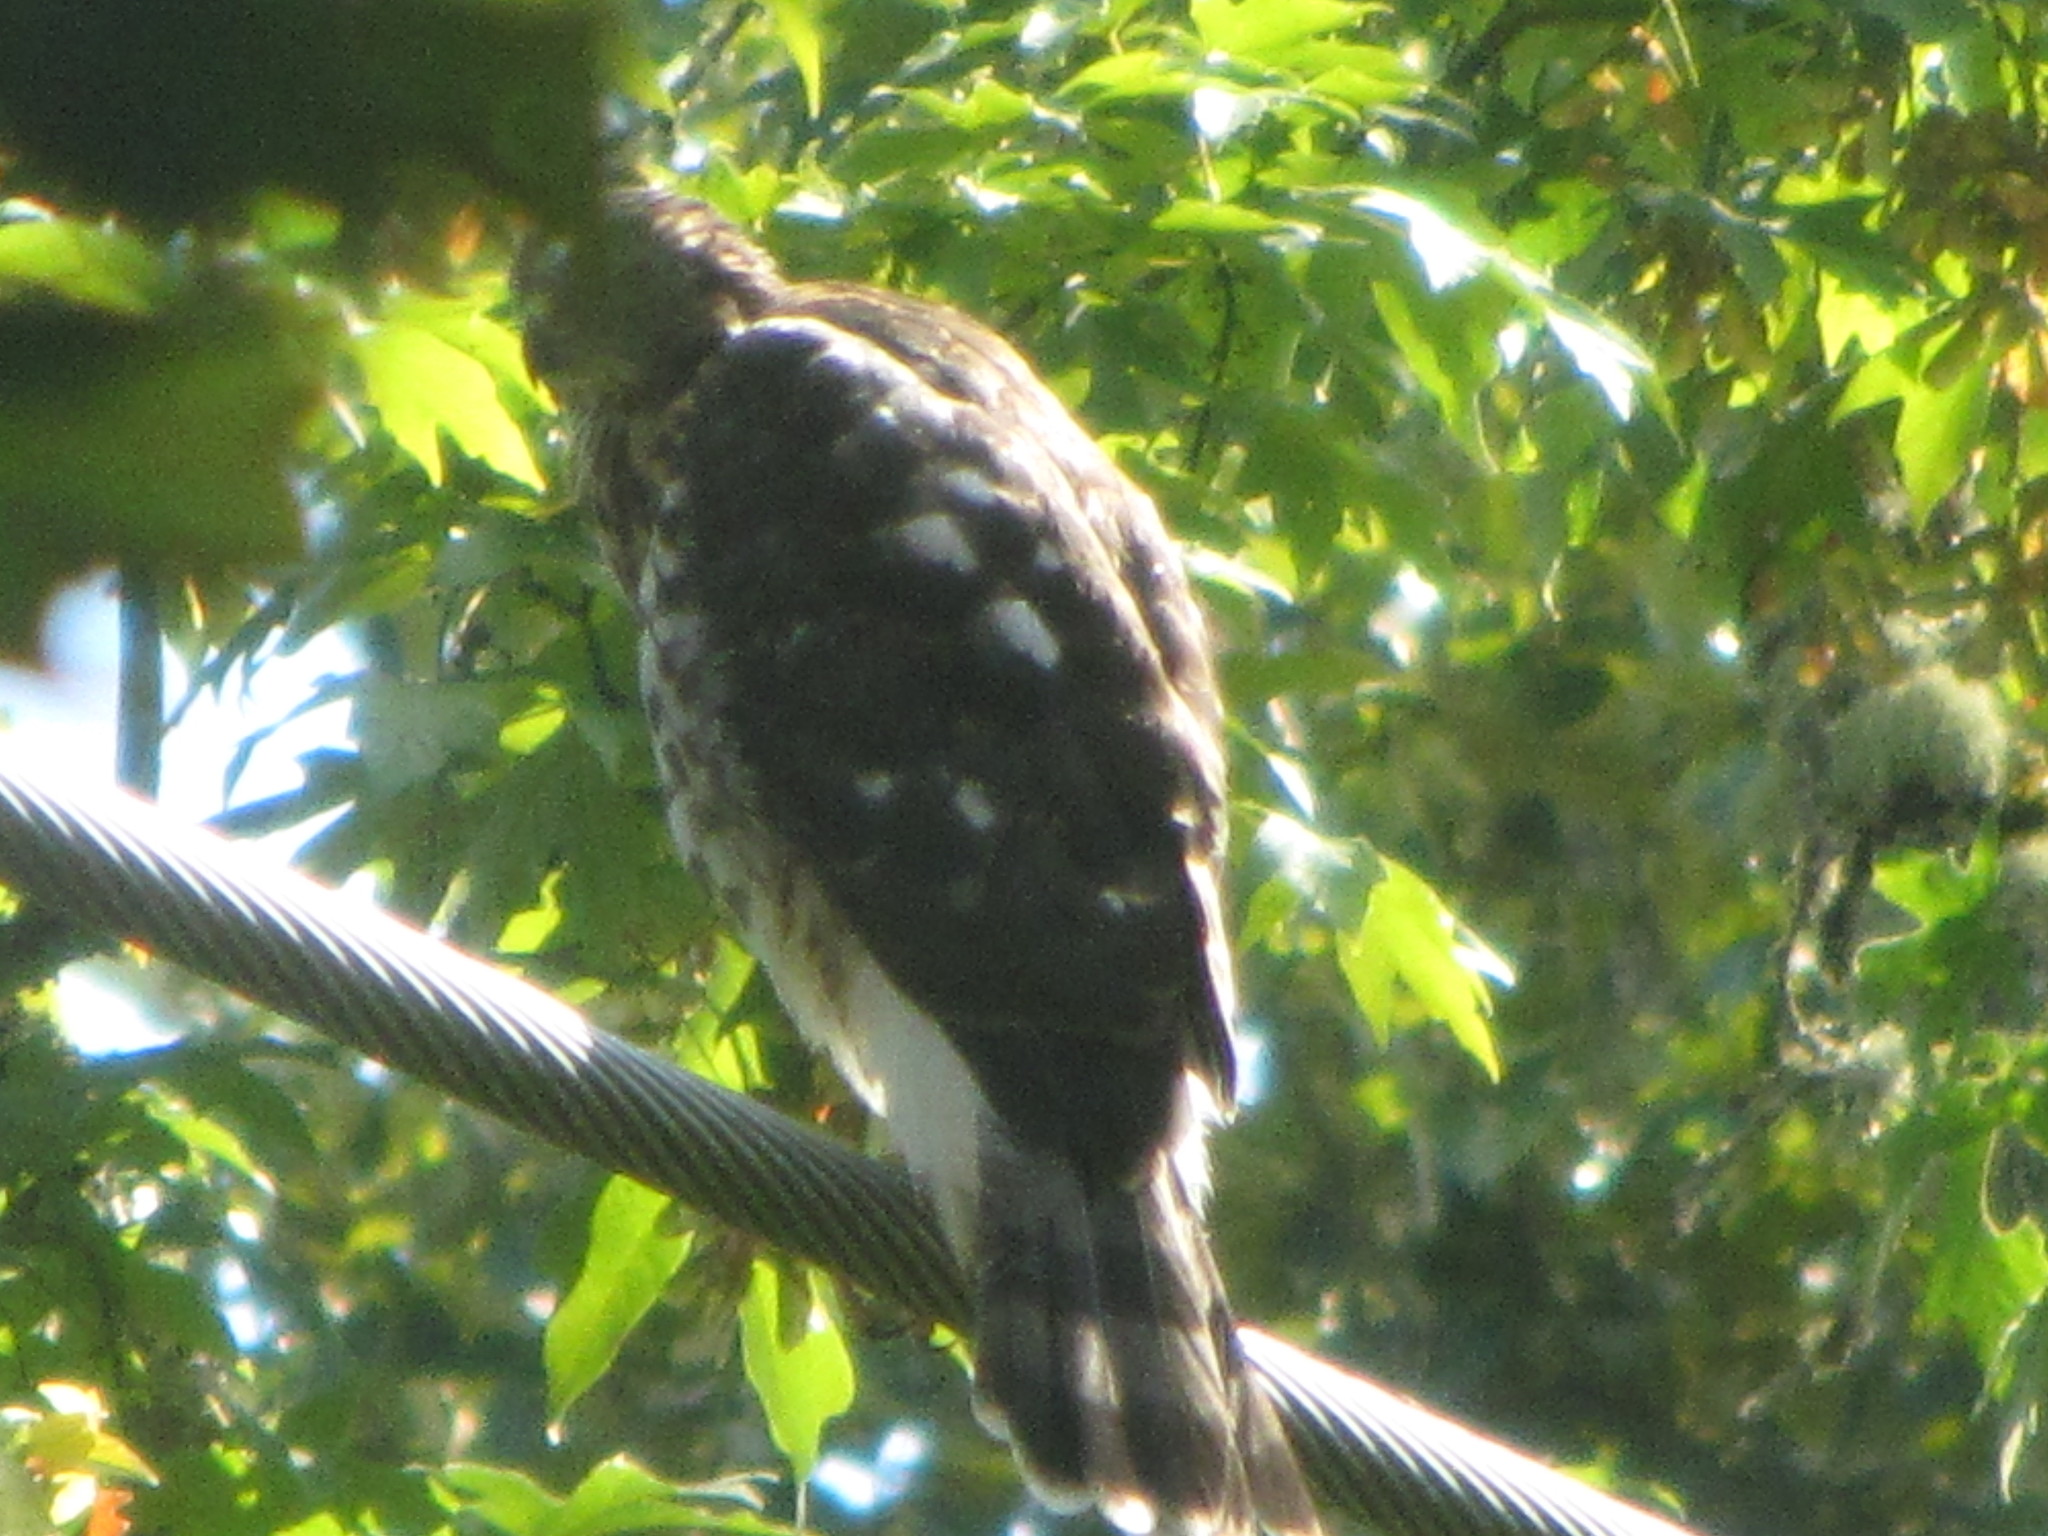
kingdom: Animalia
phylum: Chordata
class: Aves
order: Accipitriformes
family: Accipitridae
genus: Accipiter
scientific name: Accipiter cooperii
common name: Cooper's hawk
